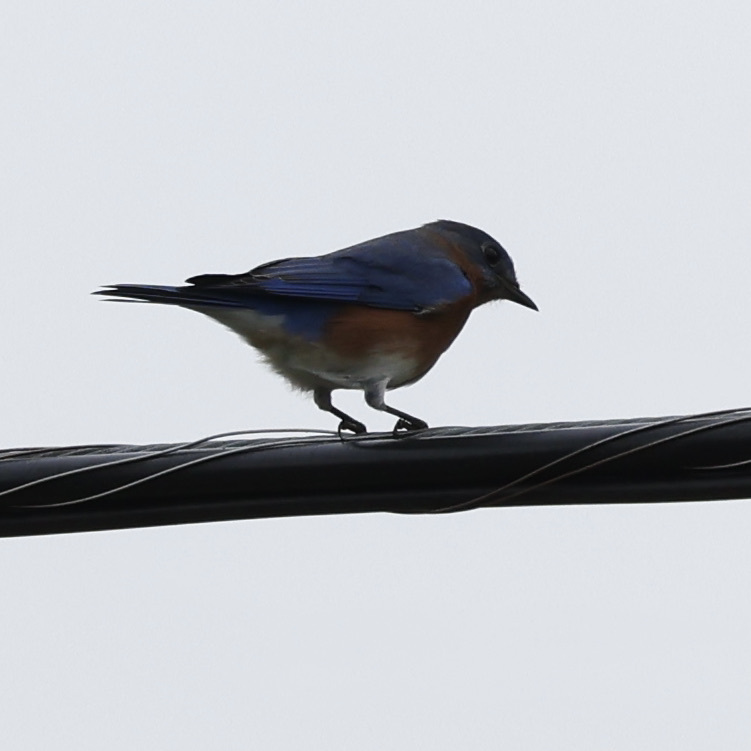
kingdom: Animalia
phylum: Chordata
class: Aves
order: Passeriformes
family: Turdidae
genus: Sialia
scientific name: Sialia sialis
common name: Eastern bluebird
